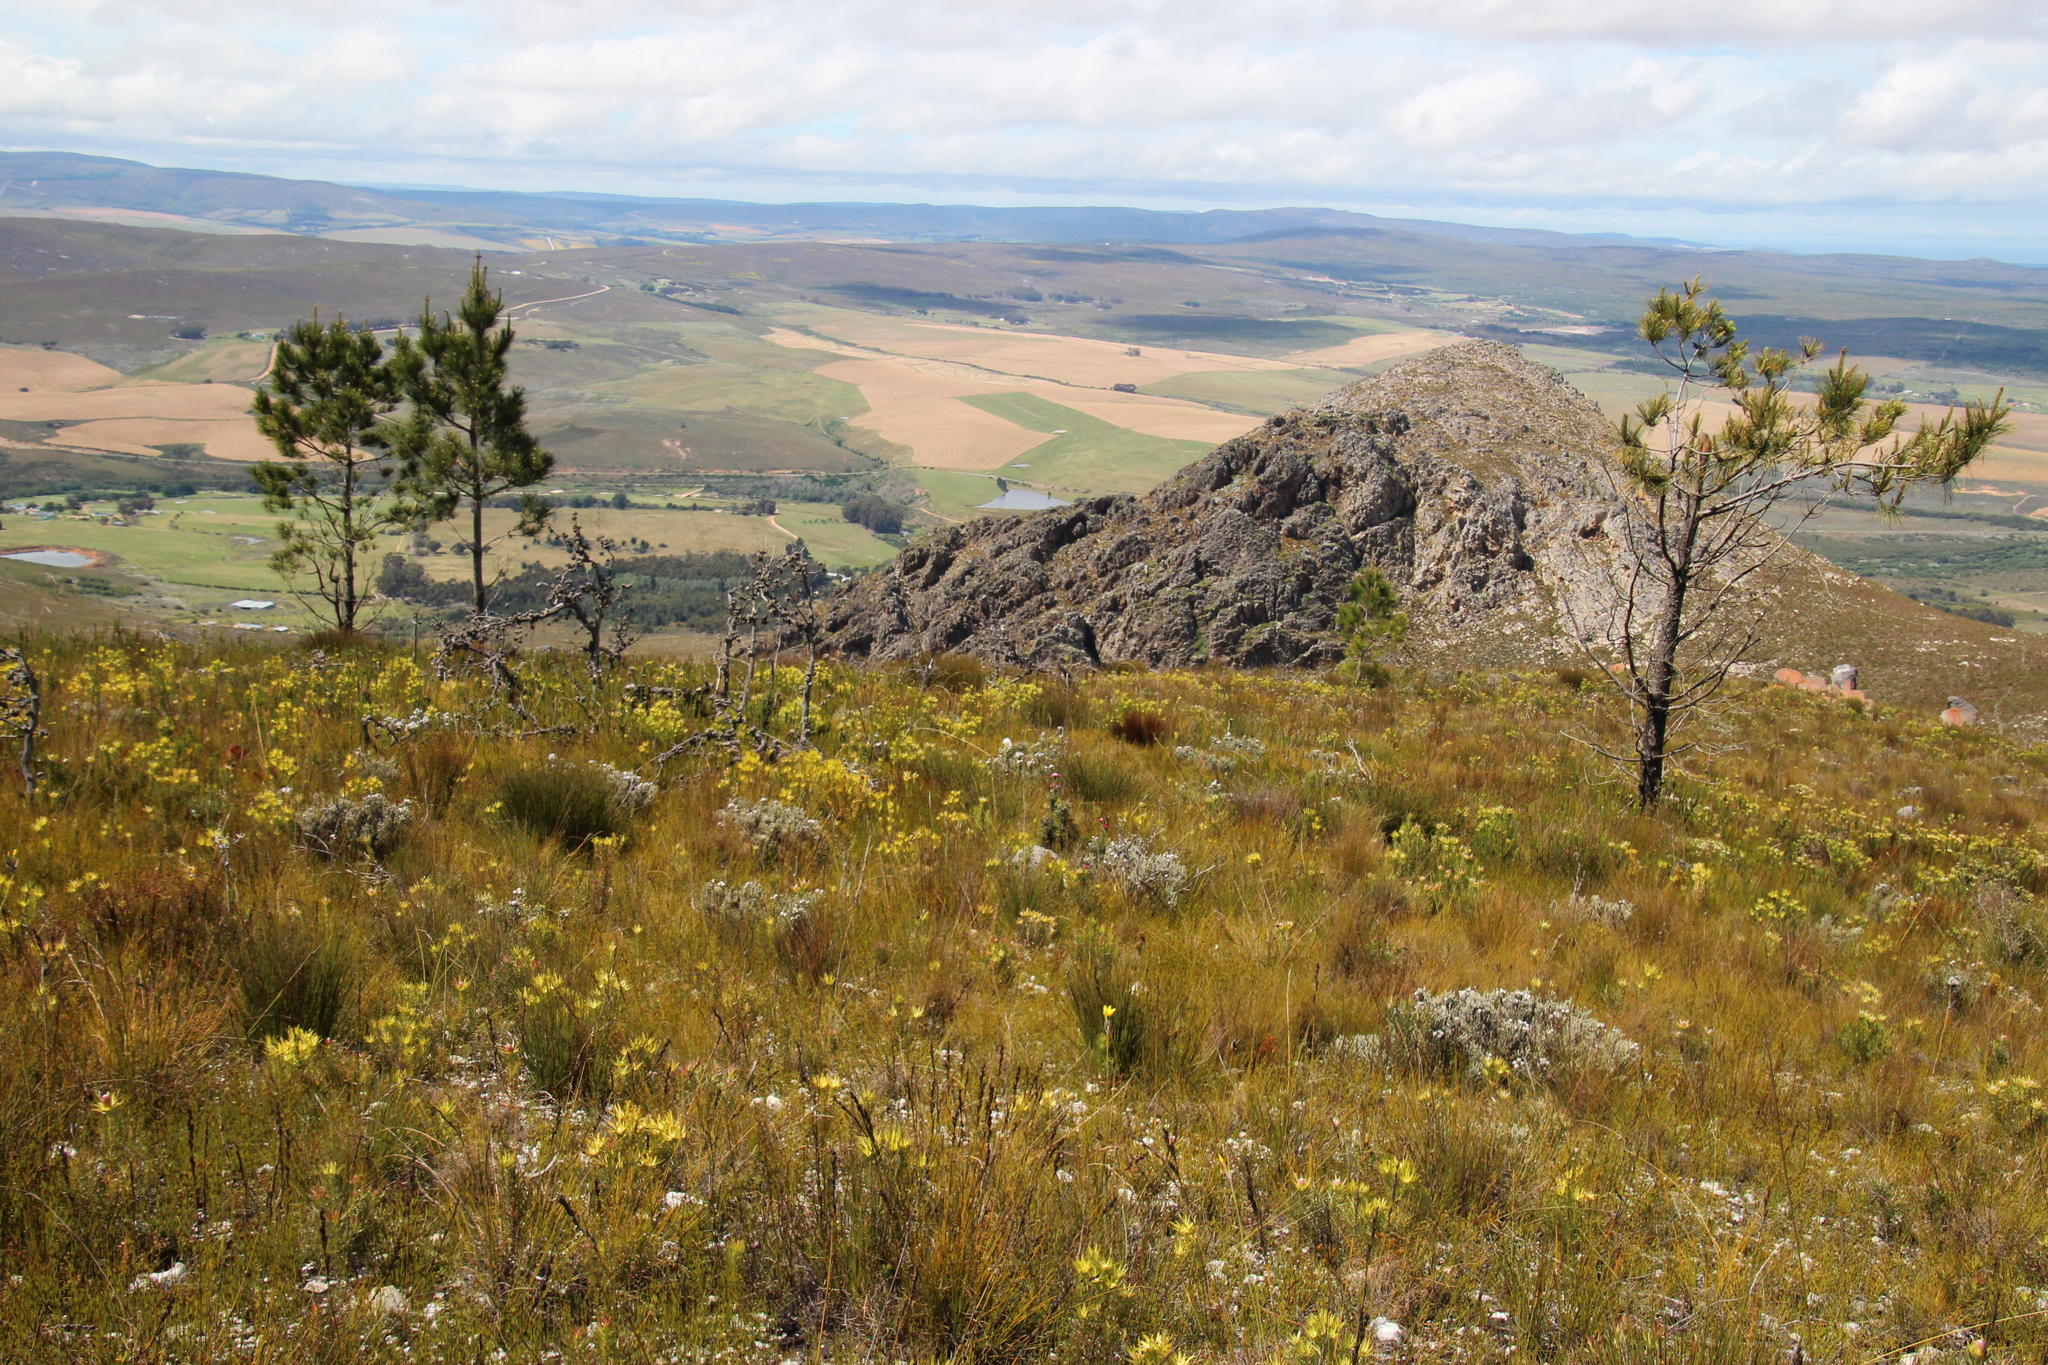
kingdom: Plantae
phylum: Tracheophyta
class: Magnoliopsida
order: Proteales
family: Proteaceae
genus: Hakea
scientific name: Hakea gibbosa
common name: Rock hakea
